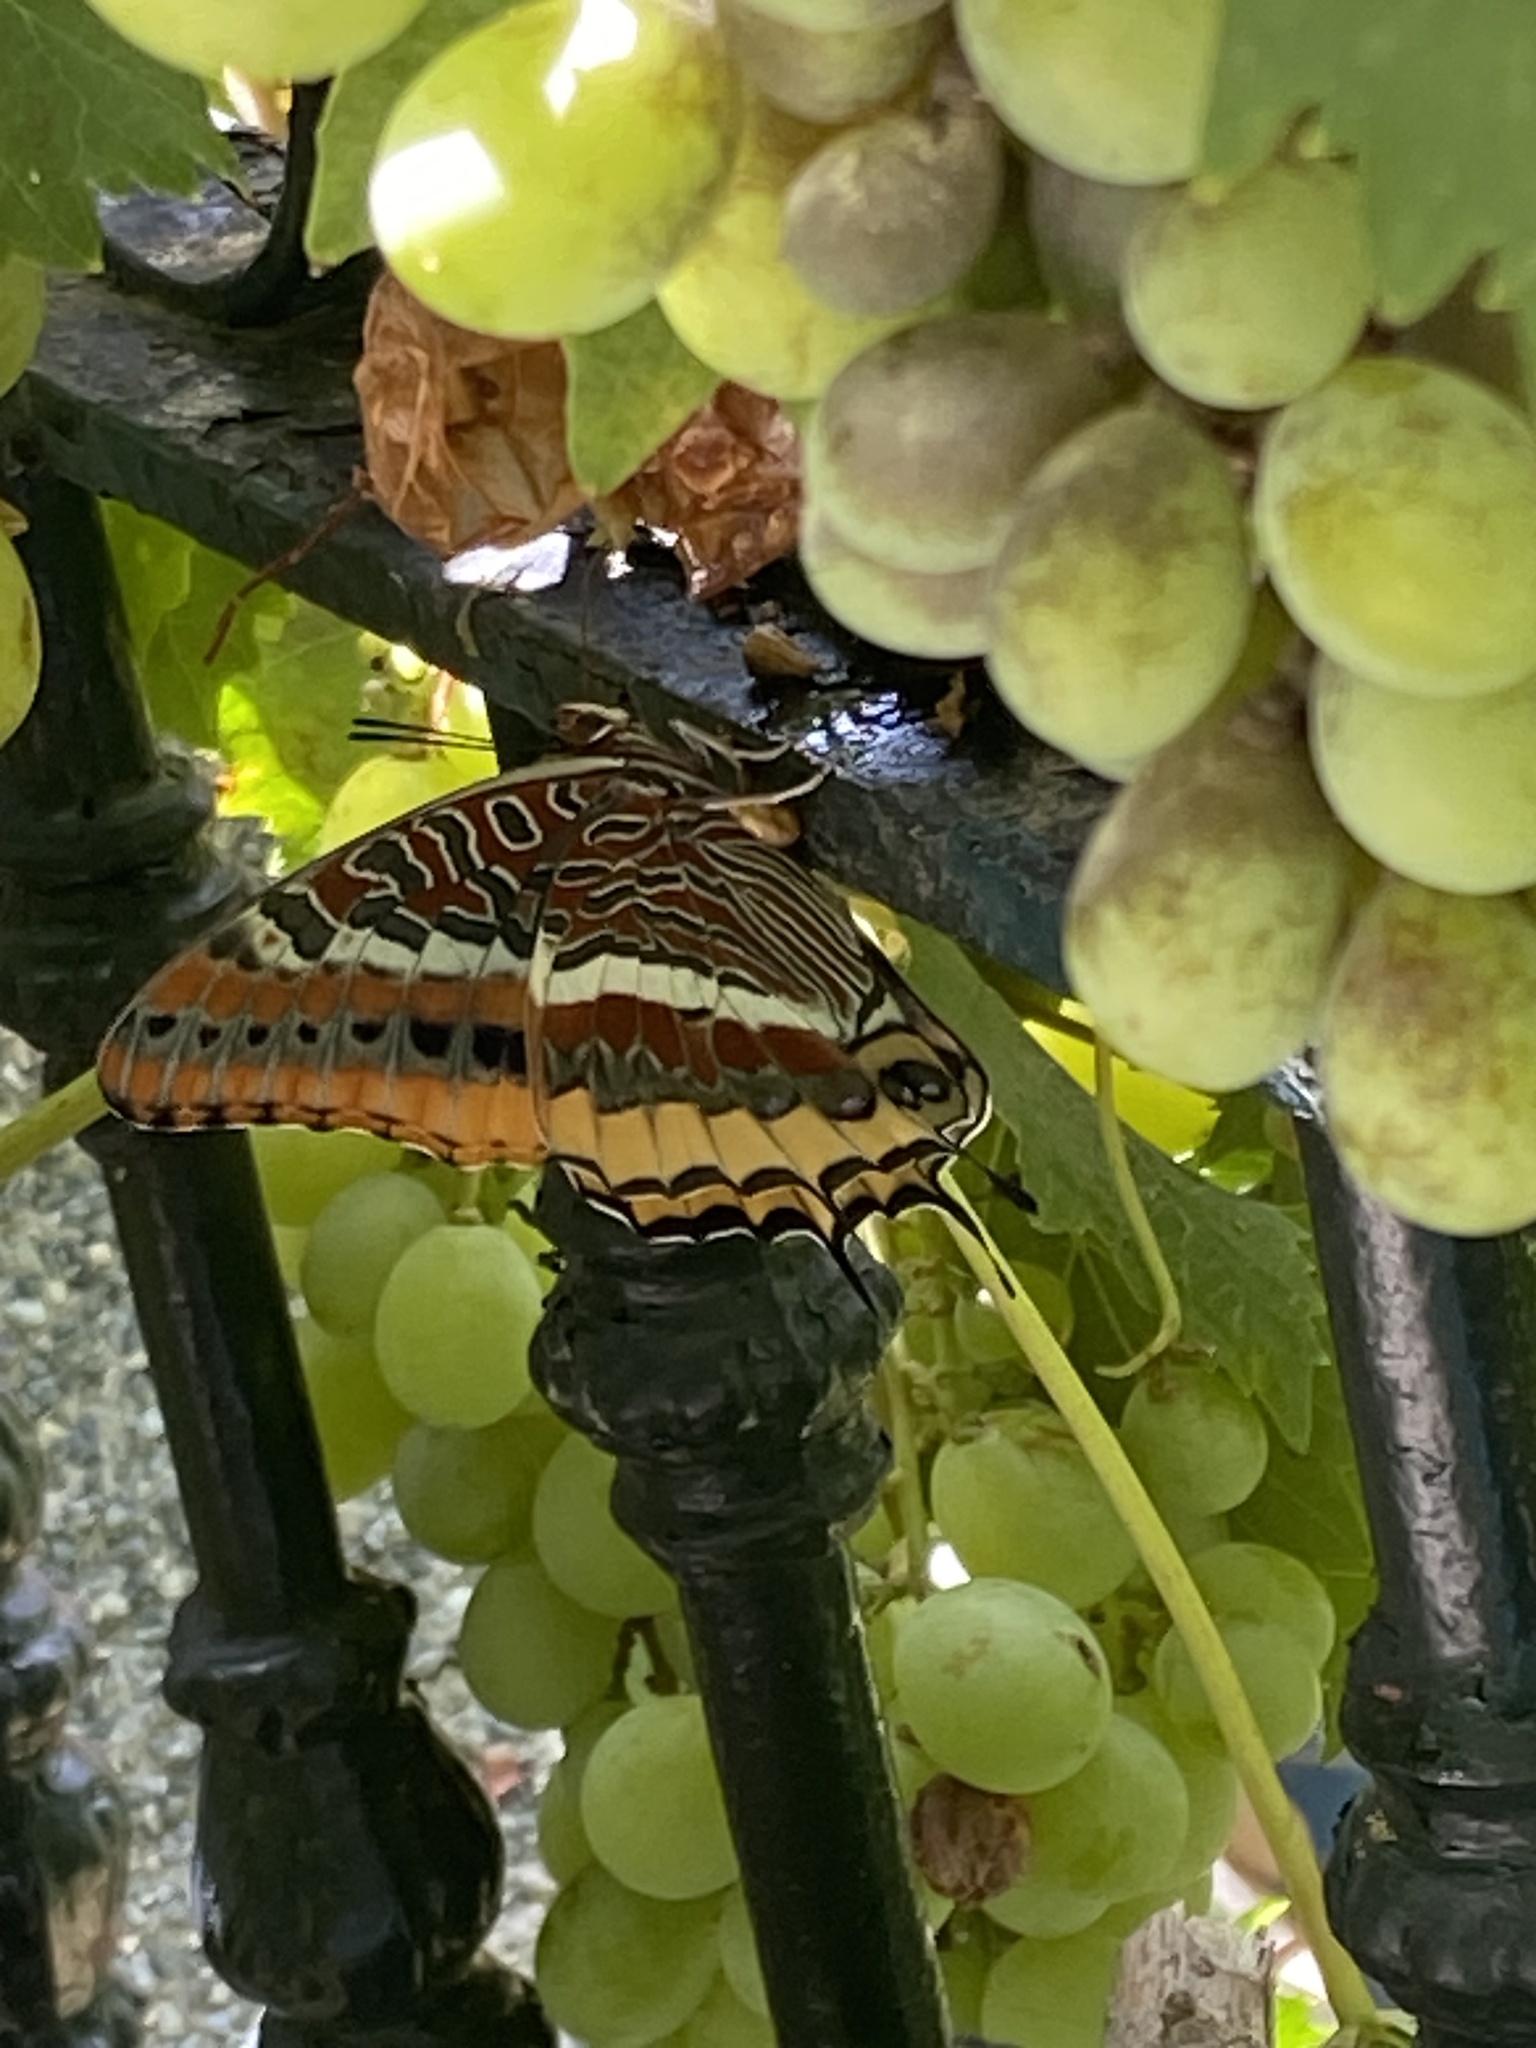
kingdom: Animalia
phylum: Arthropoda
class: Insecta
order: Lepidoptera
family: Nymphalidae
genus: Charaxes
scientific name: Charaxes jasius
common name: Two tailed pasha
